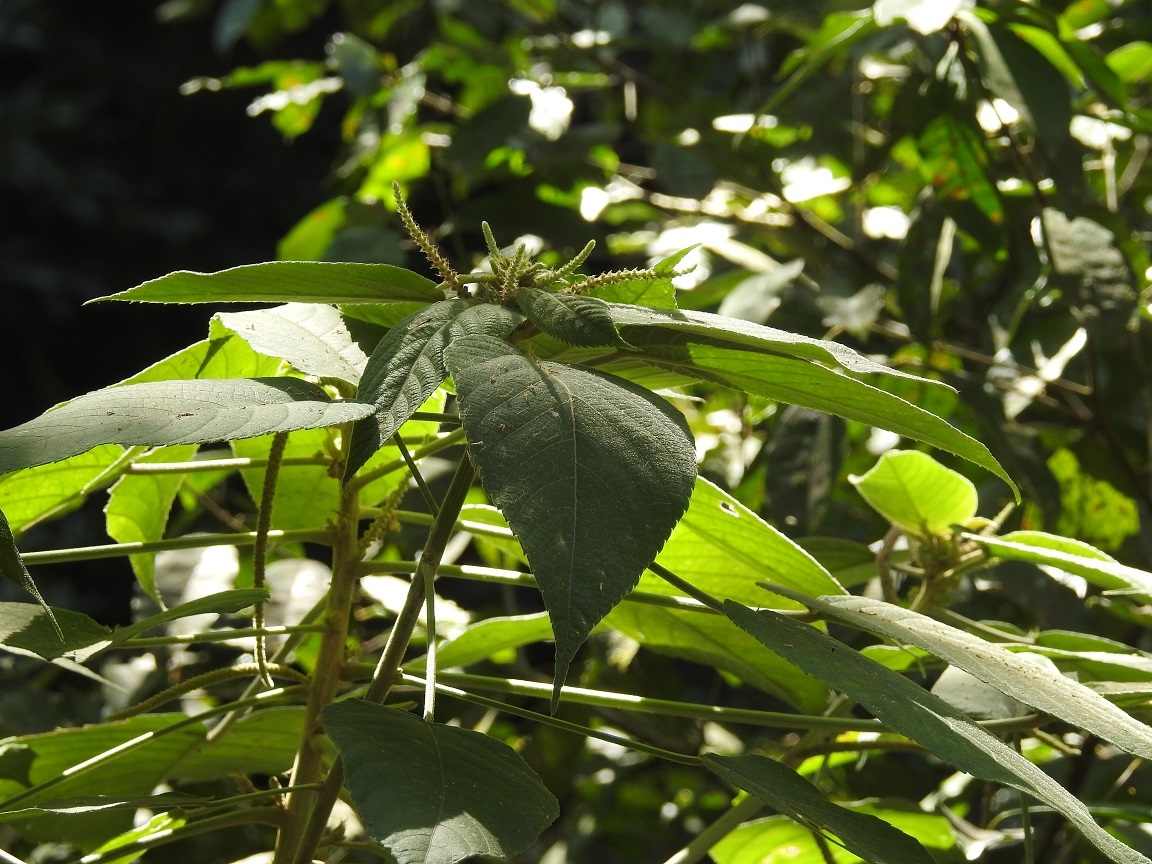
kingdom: Plantae
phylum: Tracheophyta
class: Magnoliopsida
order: Malpighiales
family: Euphorbiaceae
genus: Acalypha
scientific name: Acalypha macrostachya
